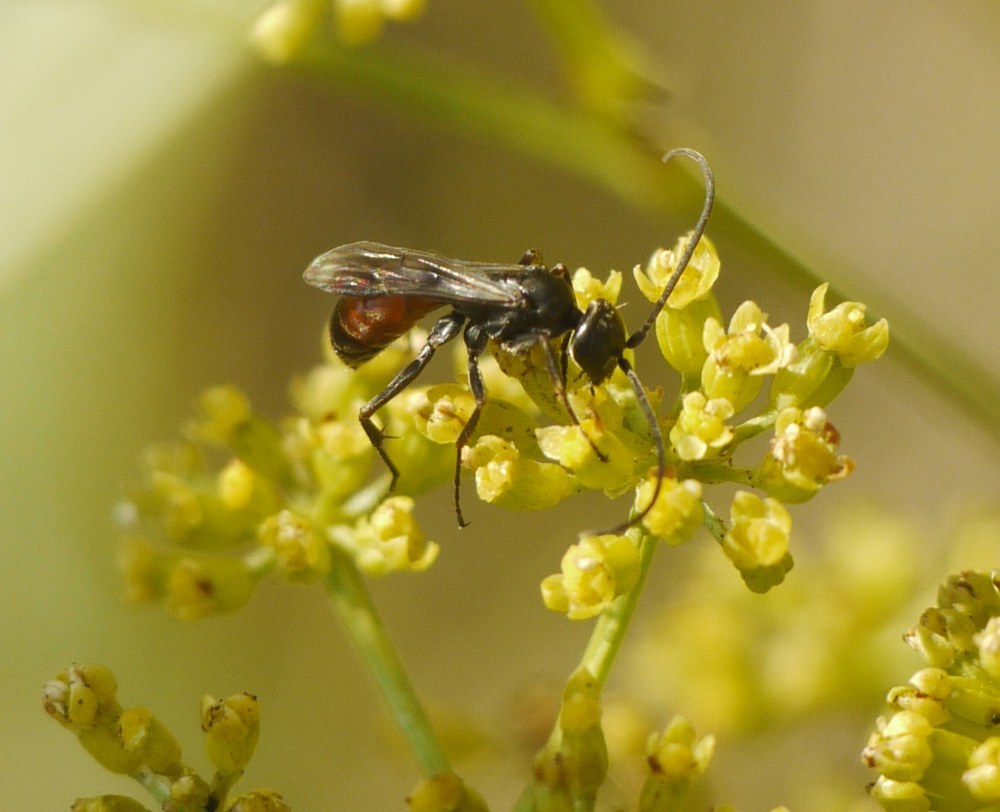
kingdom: Animalia
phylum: Arthropoda
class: Insecta
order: Hymenoptera
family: Pompilidae
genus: Caliadurgus
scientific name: Caliadurgus fasciatellus
